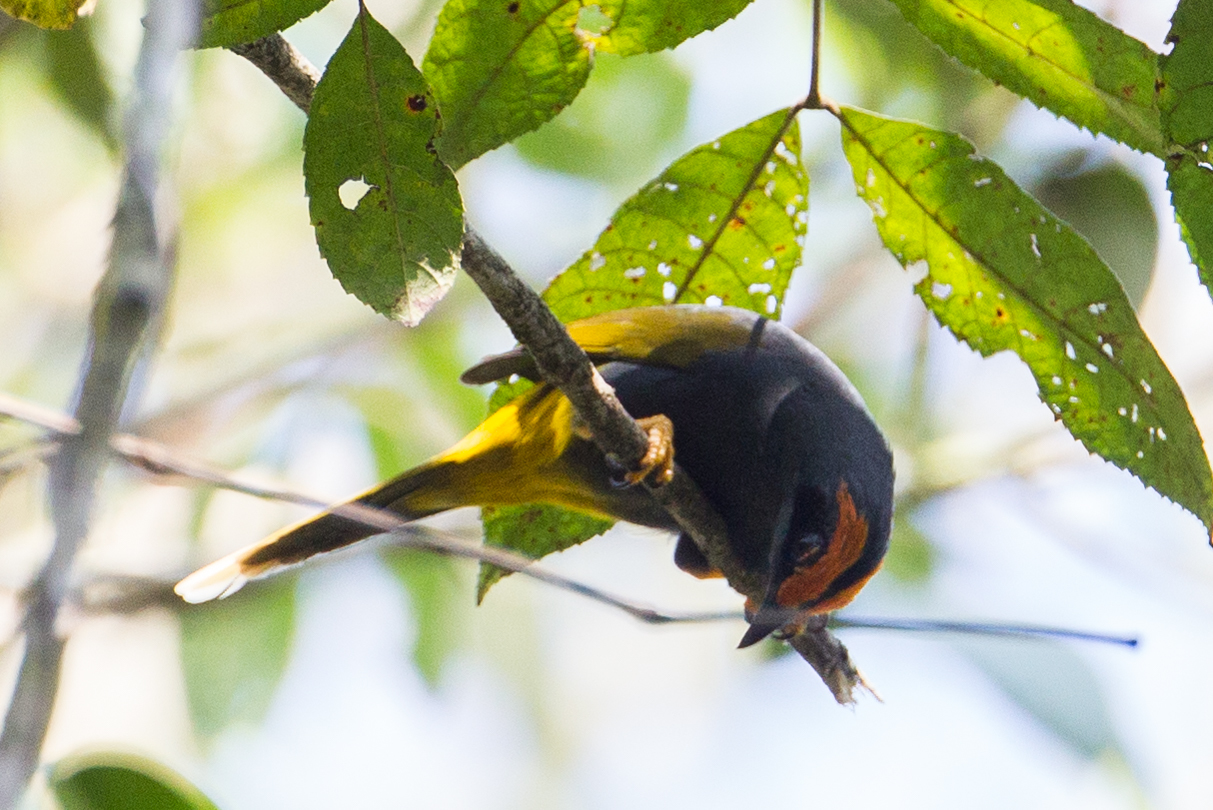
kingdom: Animalia
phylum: Chordata
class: Aves
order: Passeriformes
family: Sturnidae
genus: Enodes
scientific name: Enodes erythrophris
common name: Fiery-browed starling
